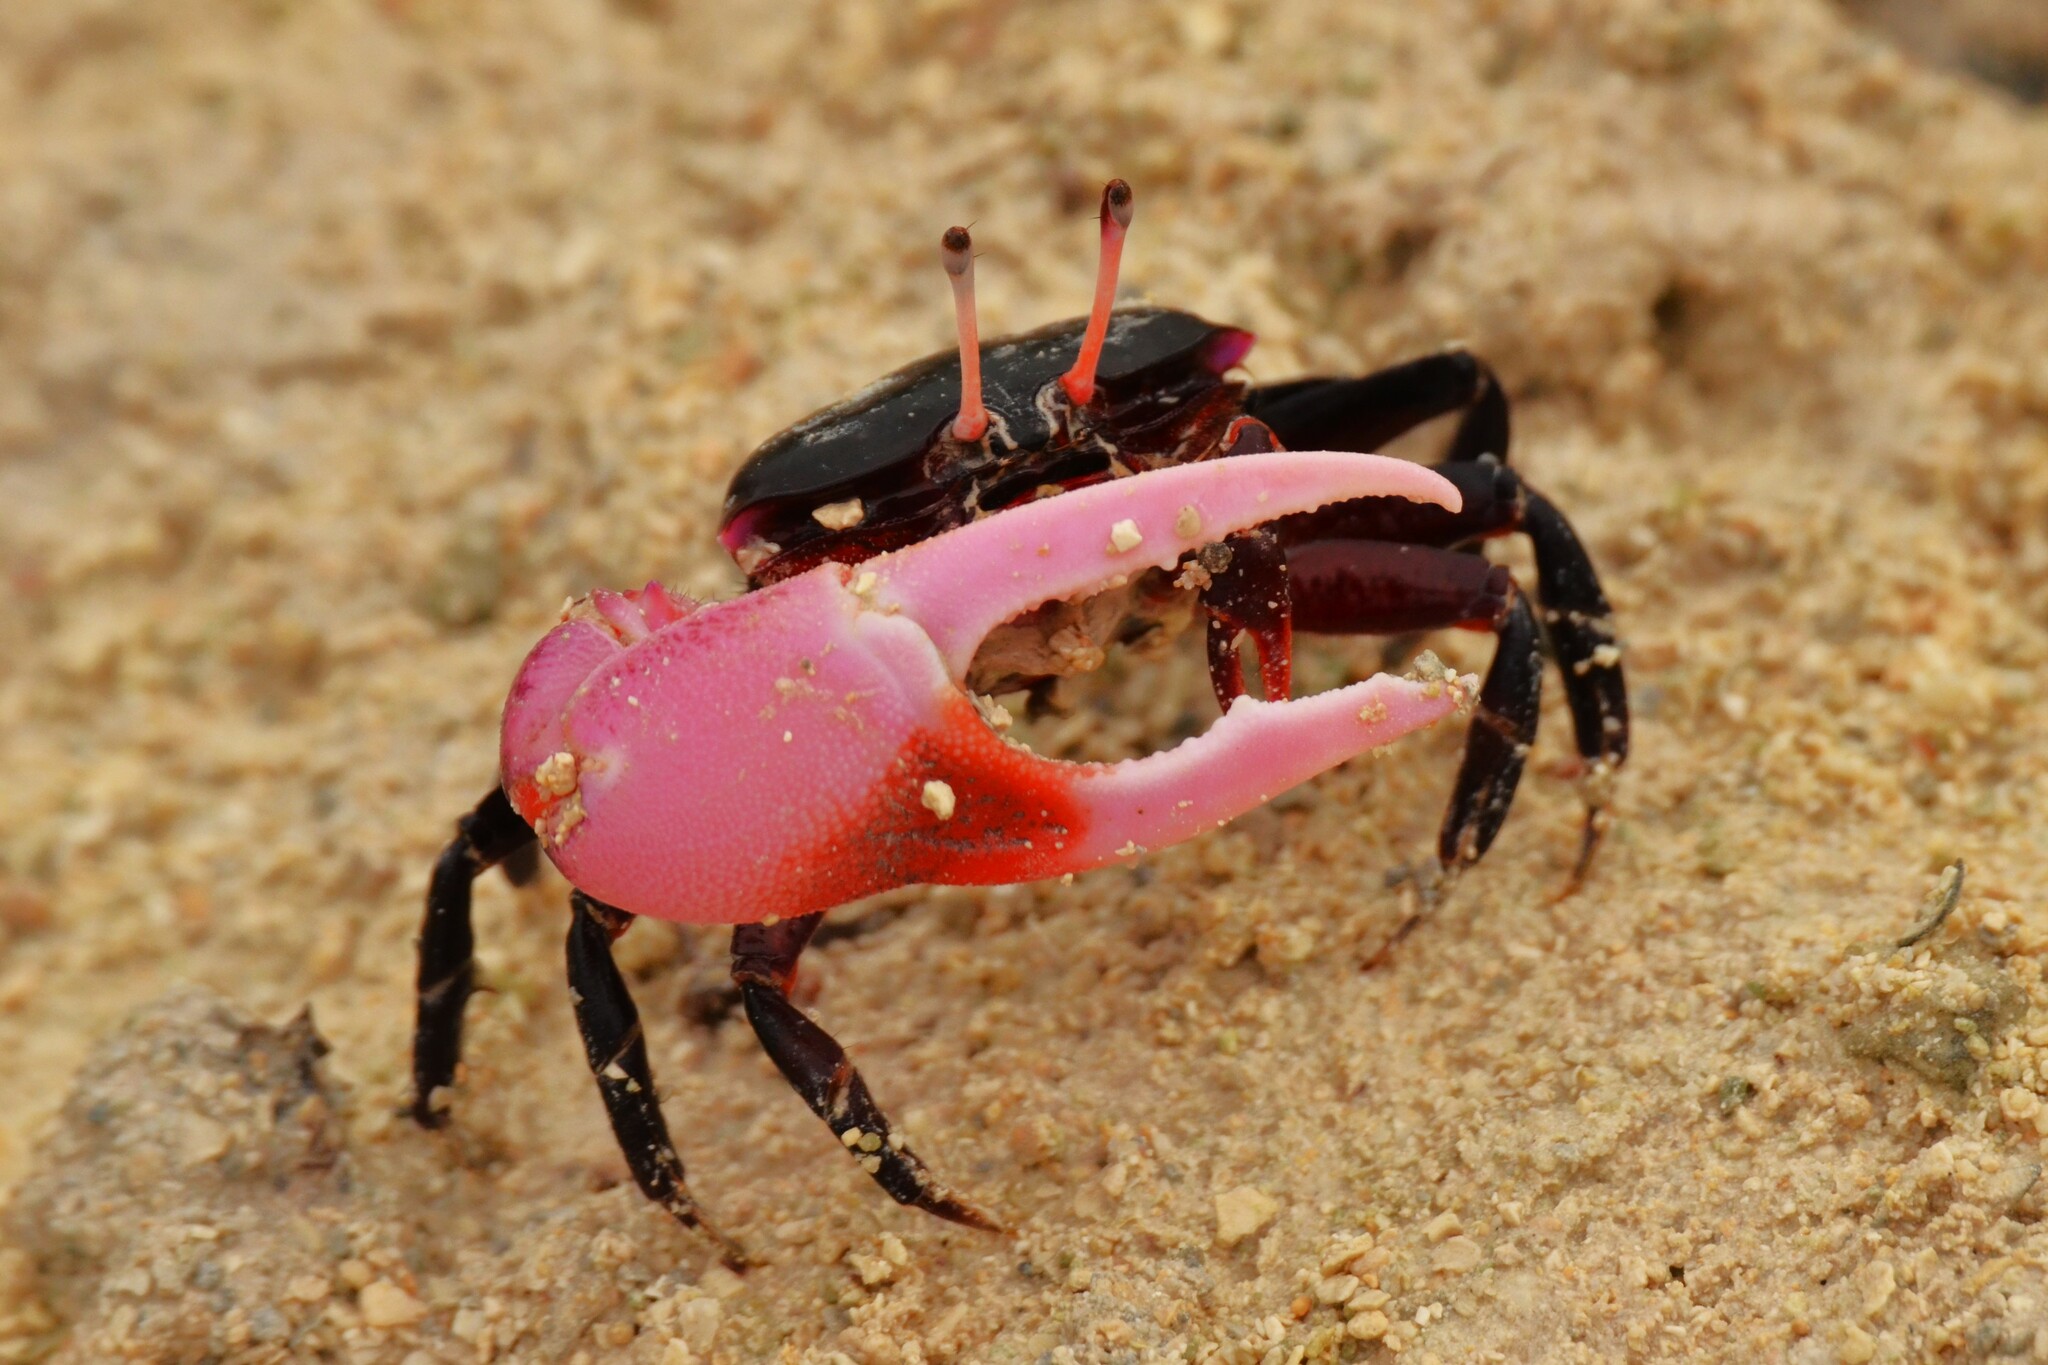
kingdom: Animalia
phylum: Arthropoda
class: Malacostraca
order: Decapoda
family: Ocypodidae
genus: Gelasimus
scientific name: Gelasimus tetragonon
